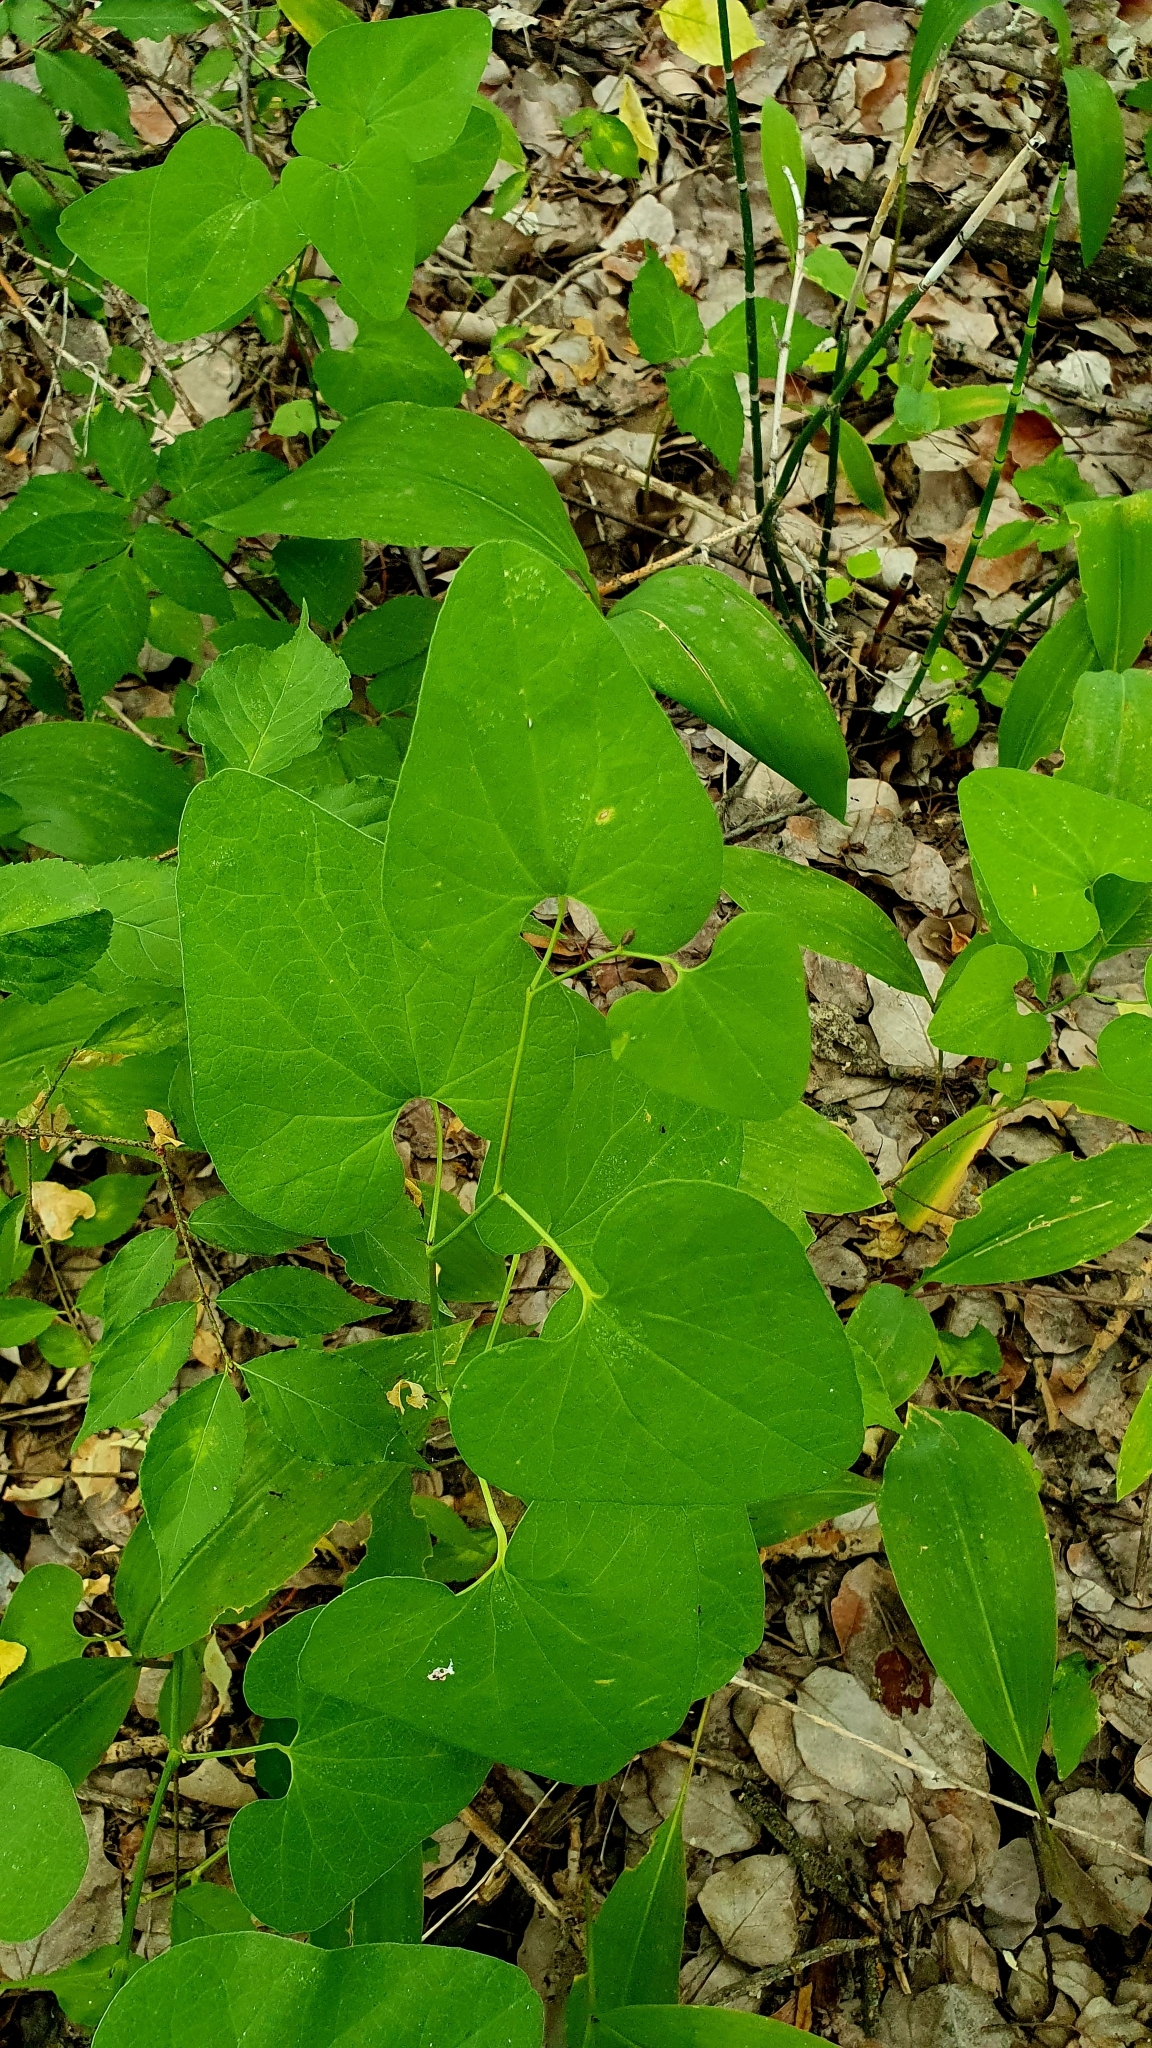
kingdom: Plantae
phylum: Tracheophyta
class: Magnoliopsida
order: Piperales
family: Aristolochiaceae
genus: Aristolochia
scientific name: Aristolochia clematitis
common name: Birthwort
